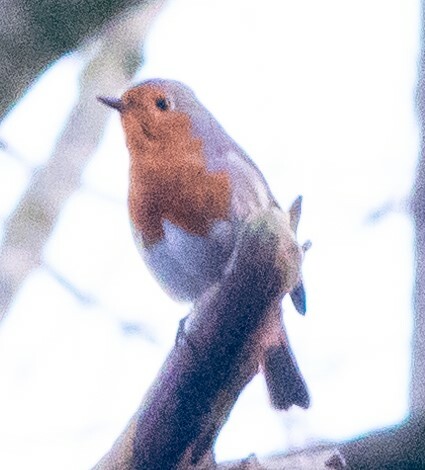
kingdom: Animalia
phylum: Chordata
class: Aves
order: Passeriformes
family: Muscicapidae
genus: Erithacus
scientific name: Erithacus rubecula
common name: European robin
